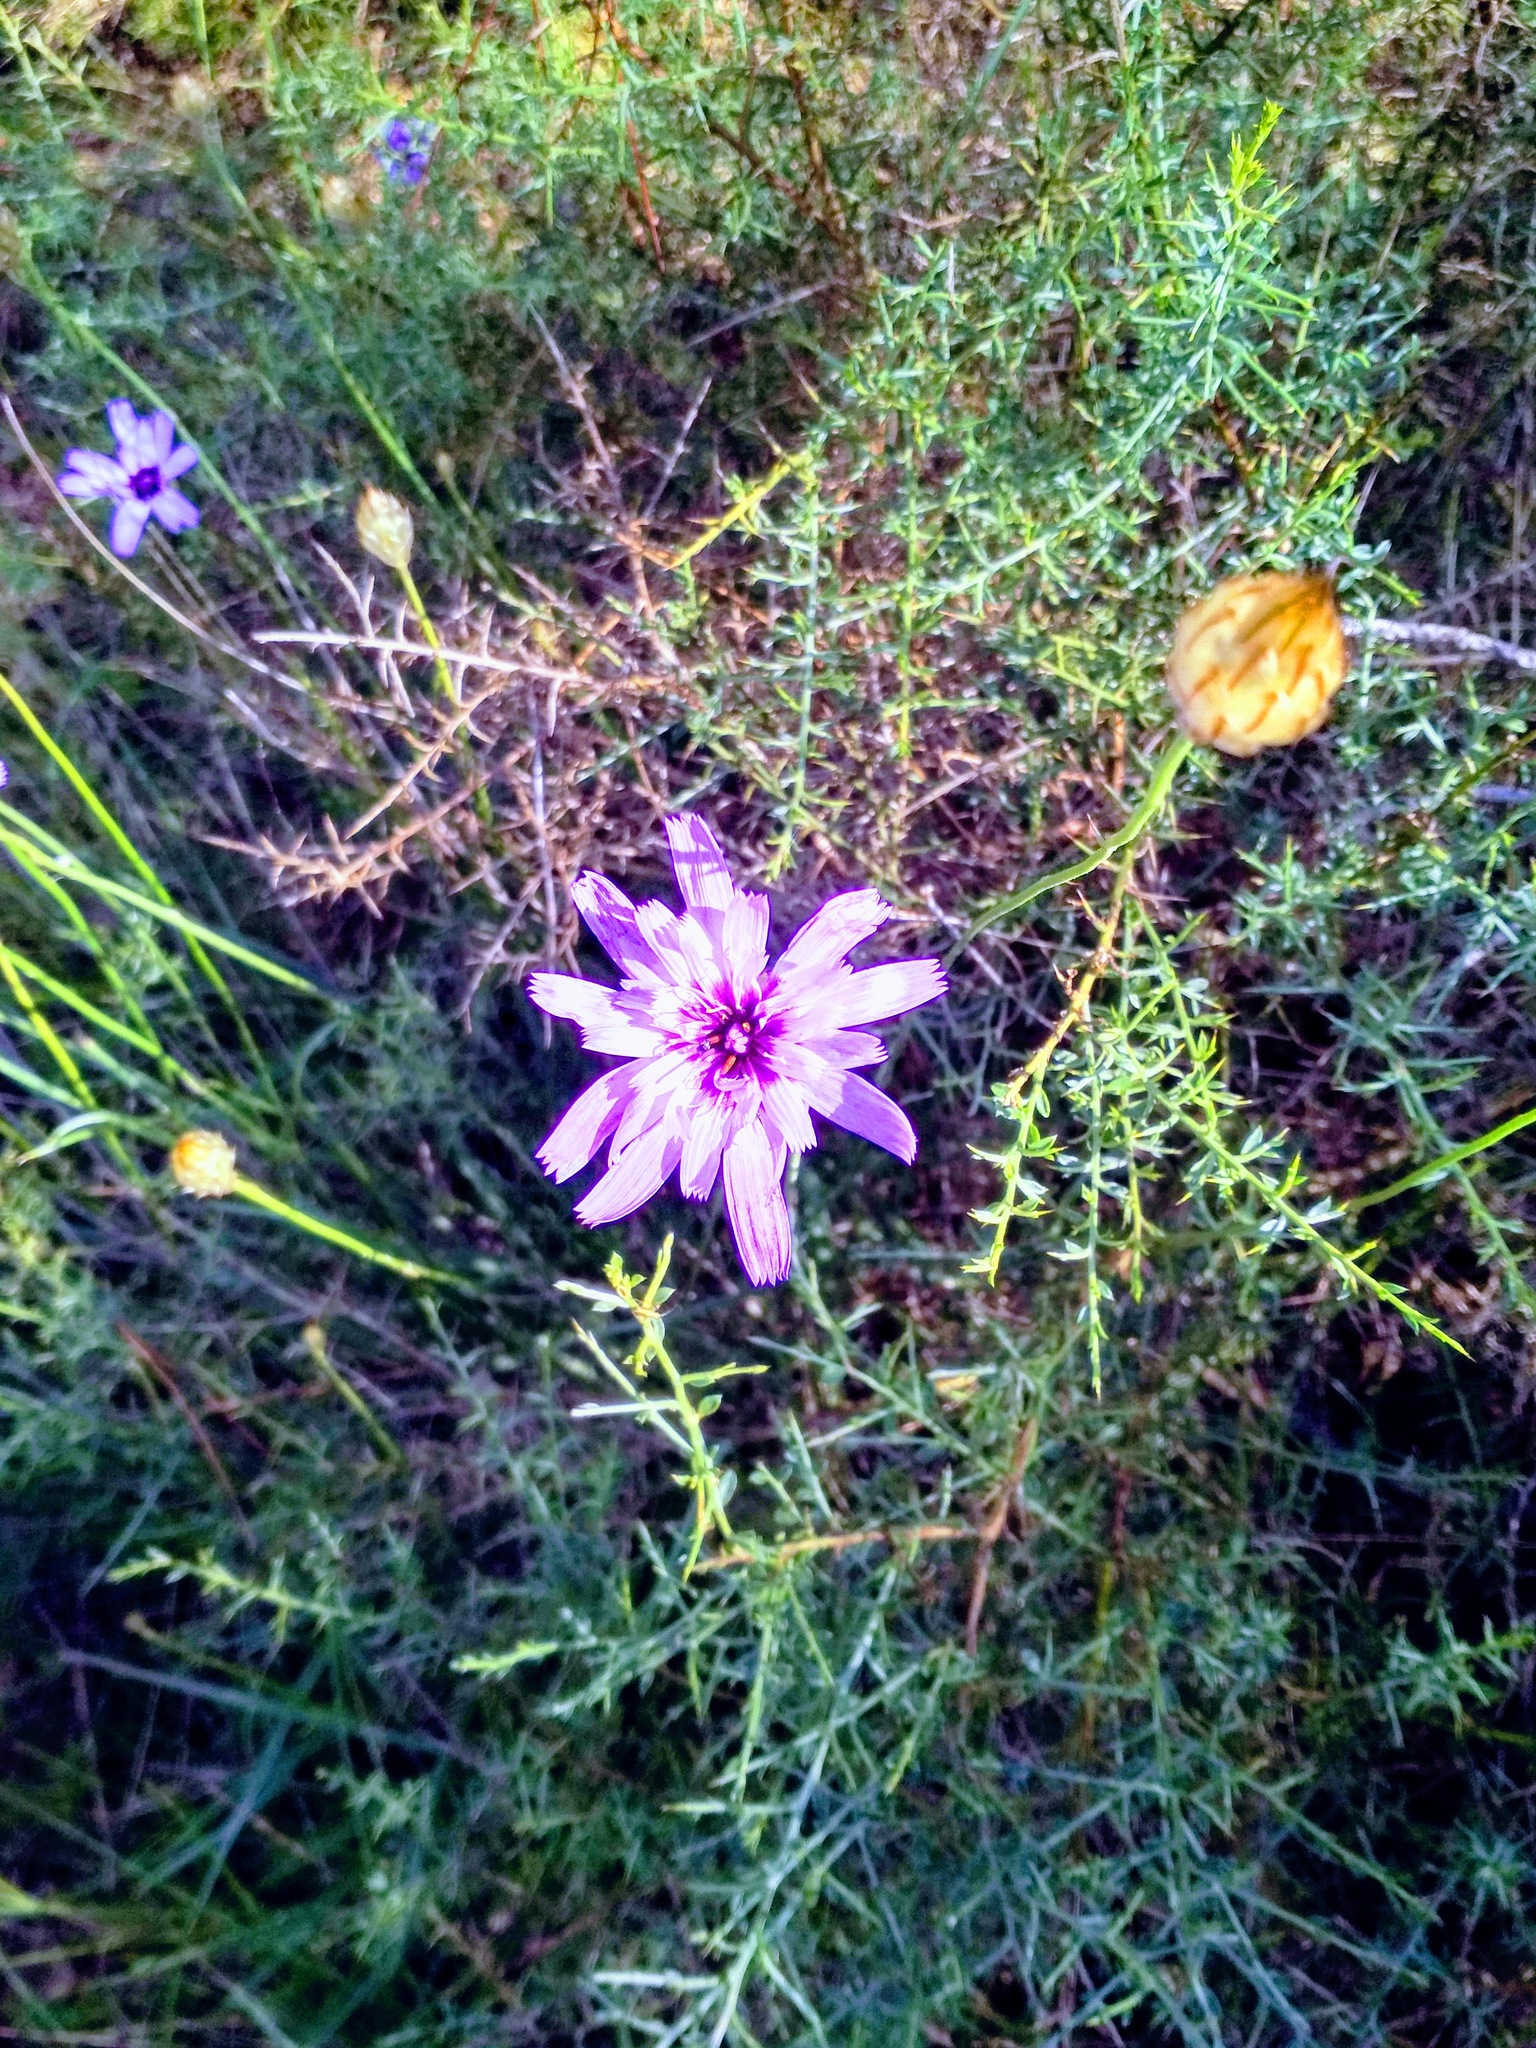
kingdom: Plantae
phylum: Tracheophyta
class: Magnoliopsida
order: Asterales
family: Asteraceae
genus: Catananche
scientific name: Catananche caerulea
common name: Blue cupidone
